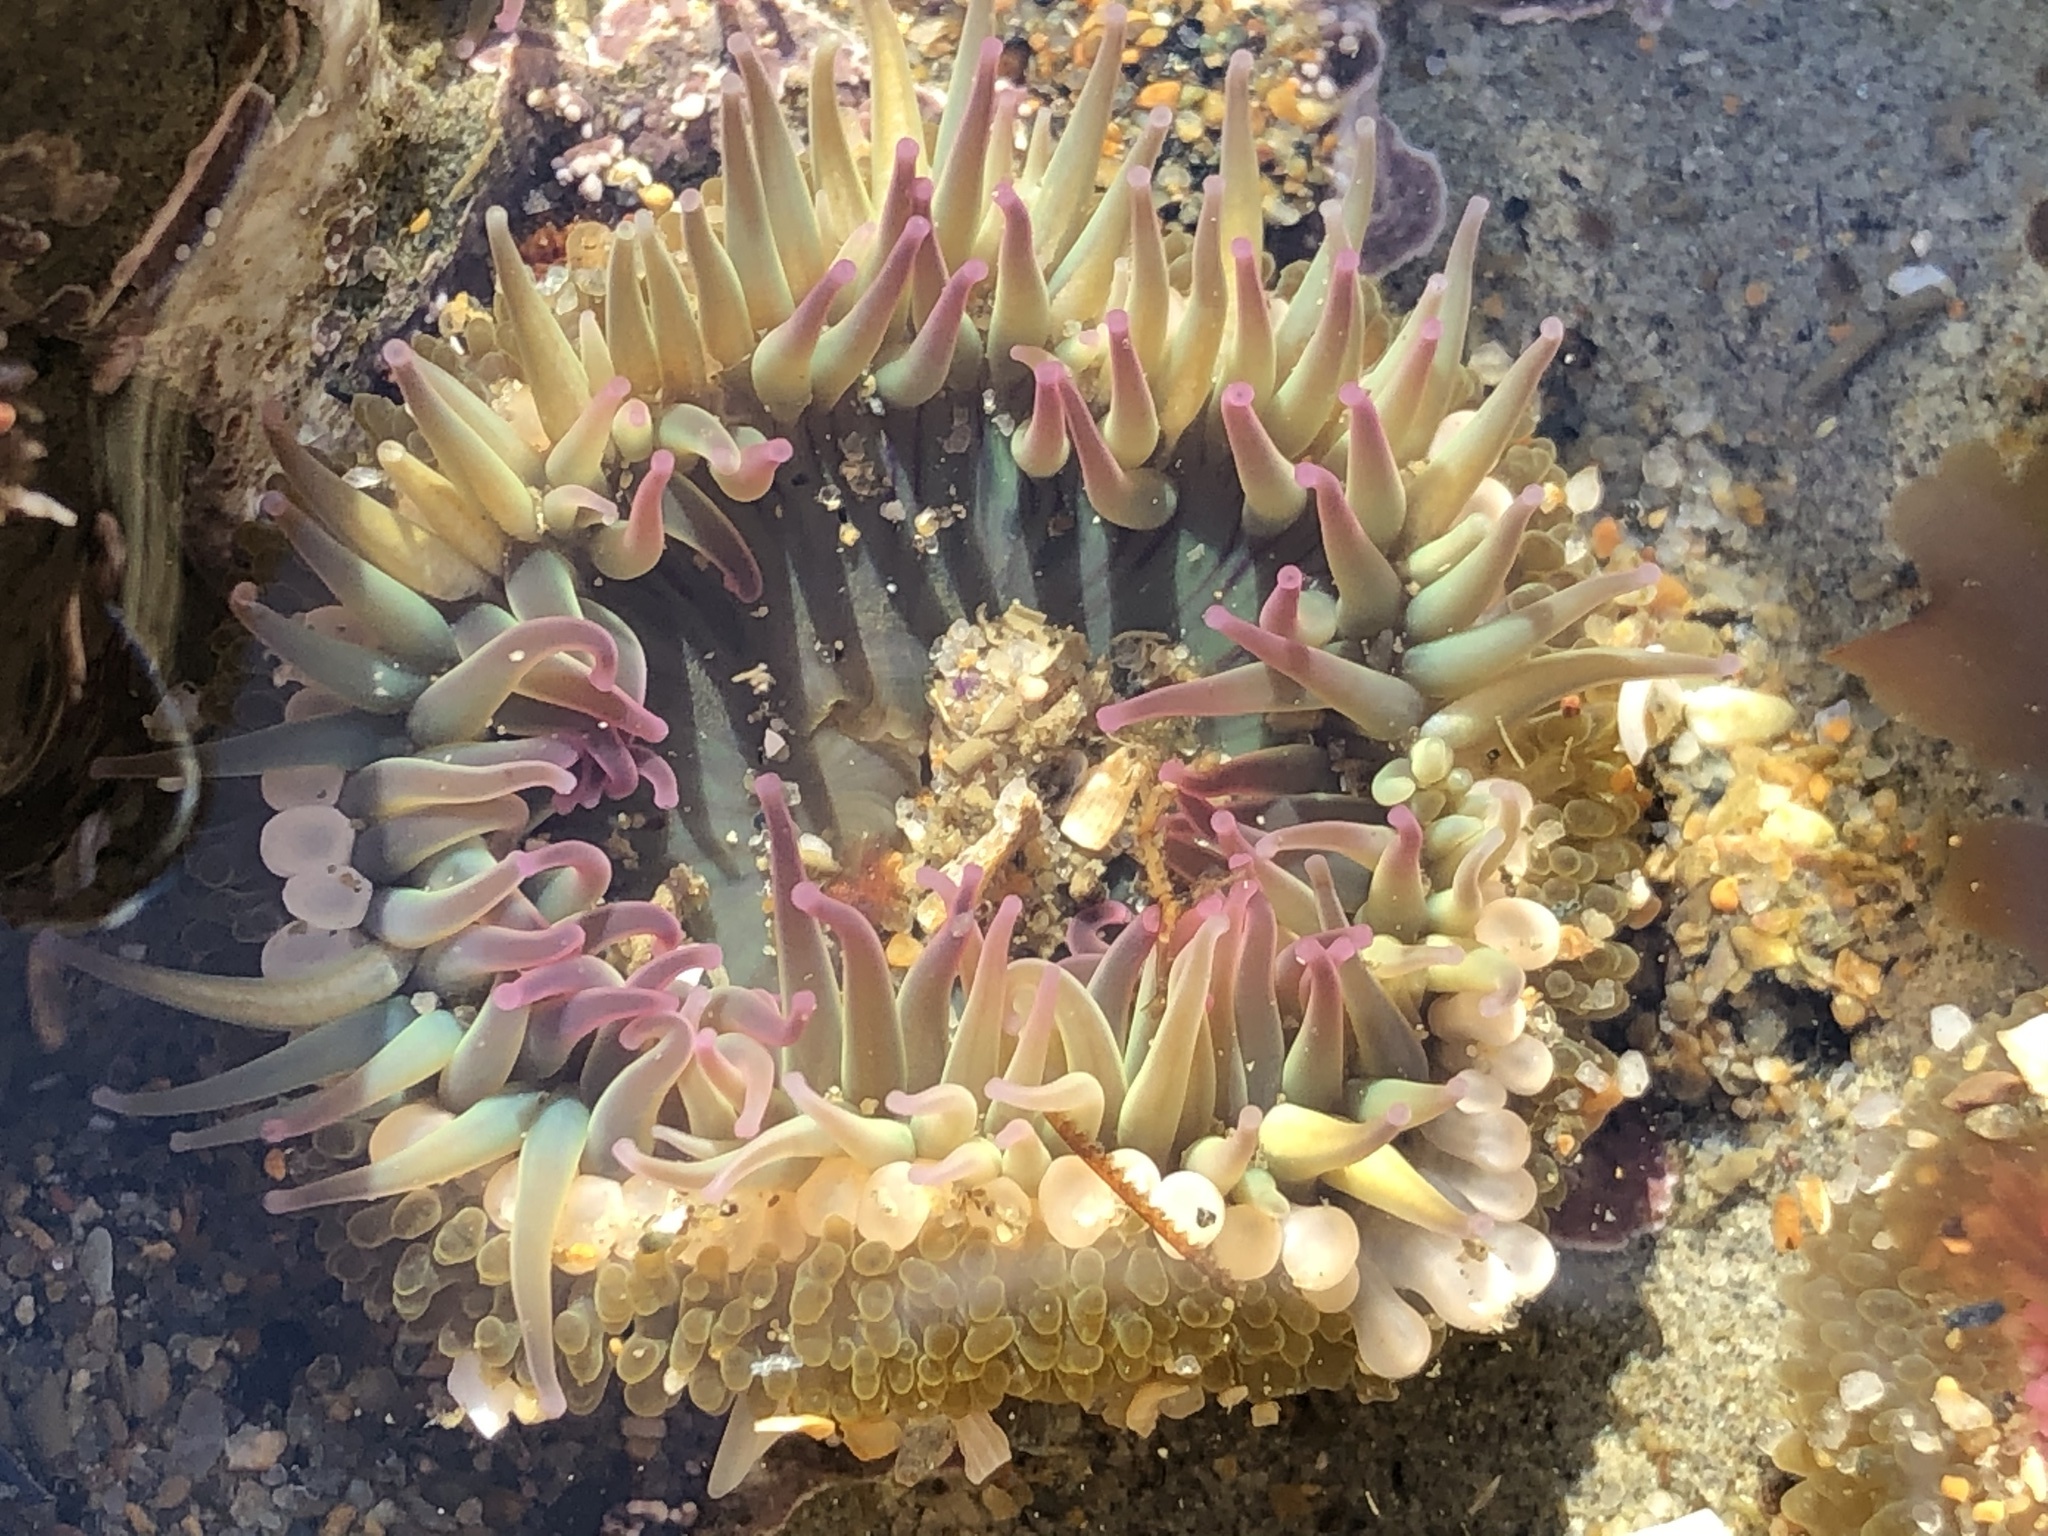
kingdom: Animalia
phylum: Cnidaria
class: Anthozoa
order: Actiniaria
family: Actiniidae
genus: Anthopleura
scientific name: Anthopleura elegantissima
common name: Clonal anemone
